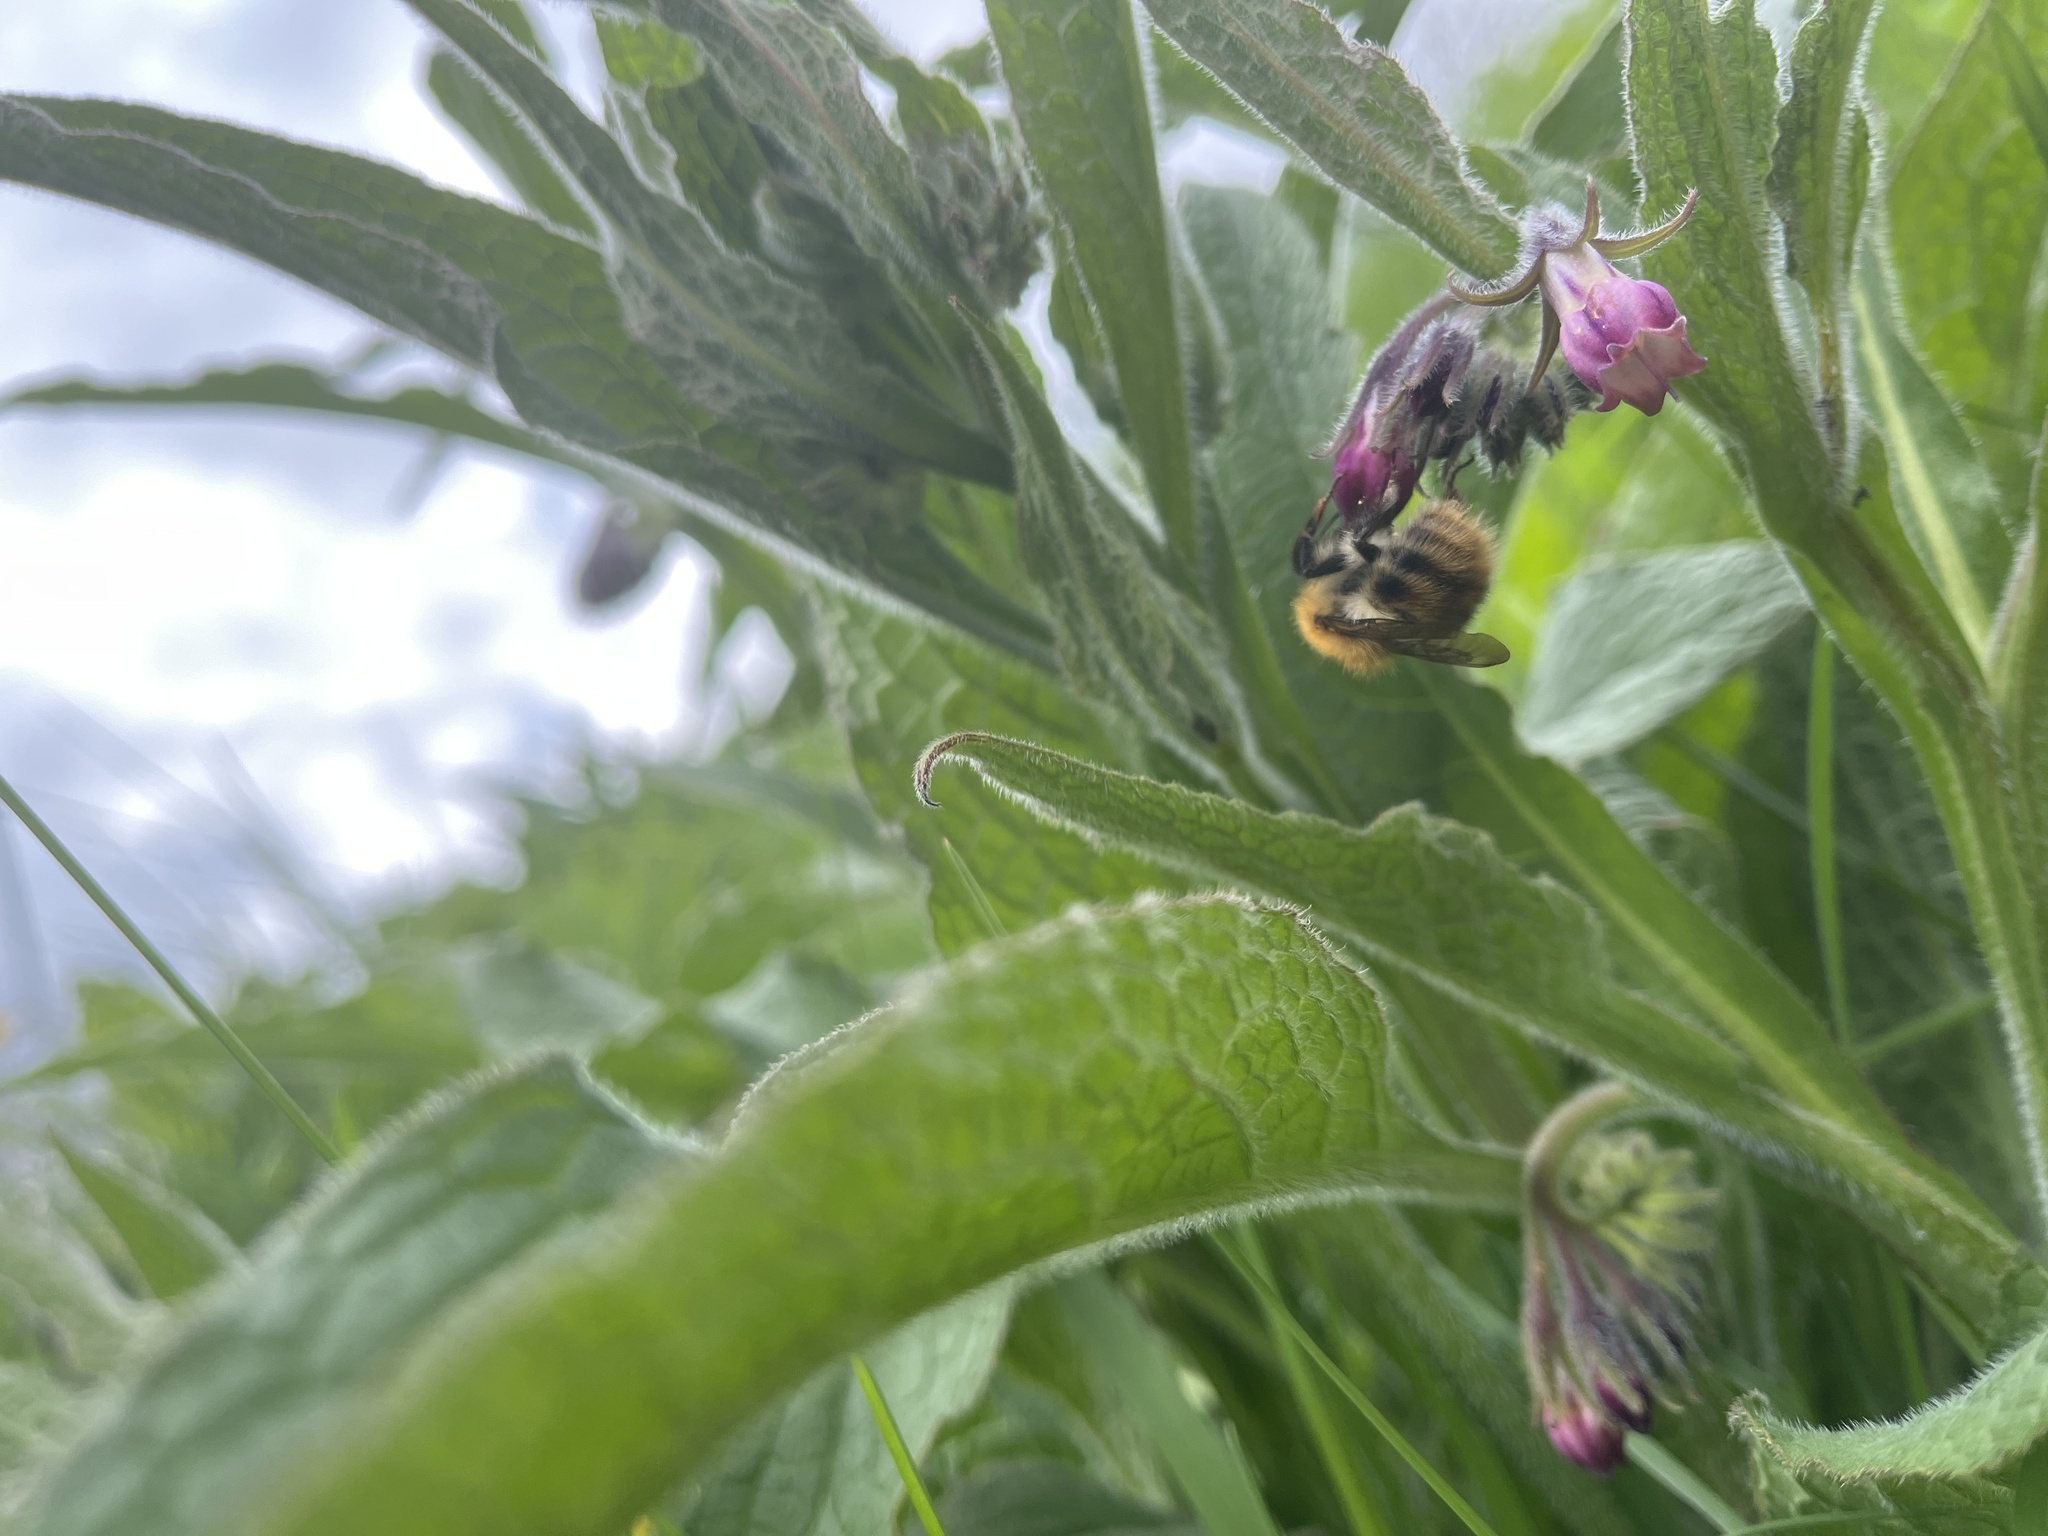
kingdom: Animalia
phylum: Arthropoda
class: Insecta
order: Hymenoptera
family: Apidae
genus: Bombus
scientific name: Bombus pascuorum
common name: Common carder bee
